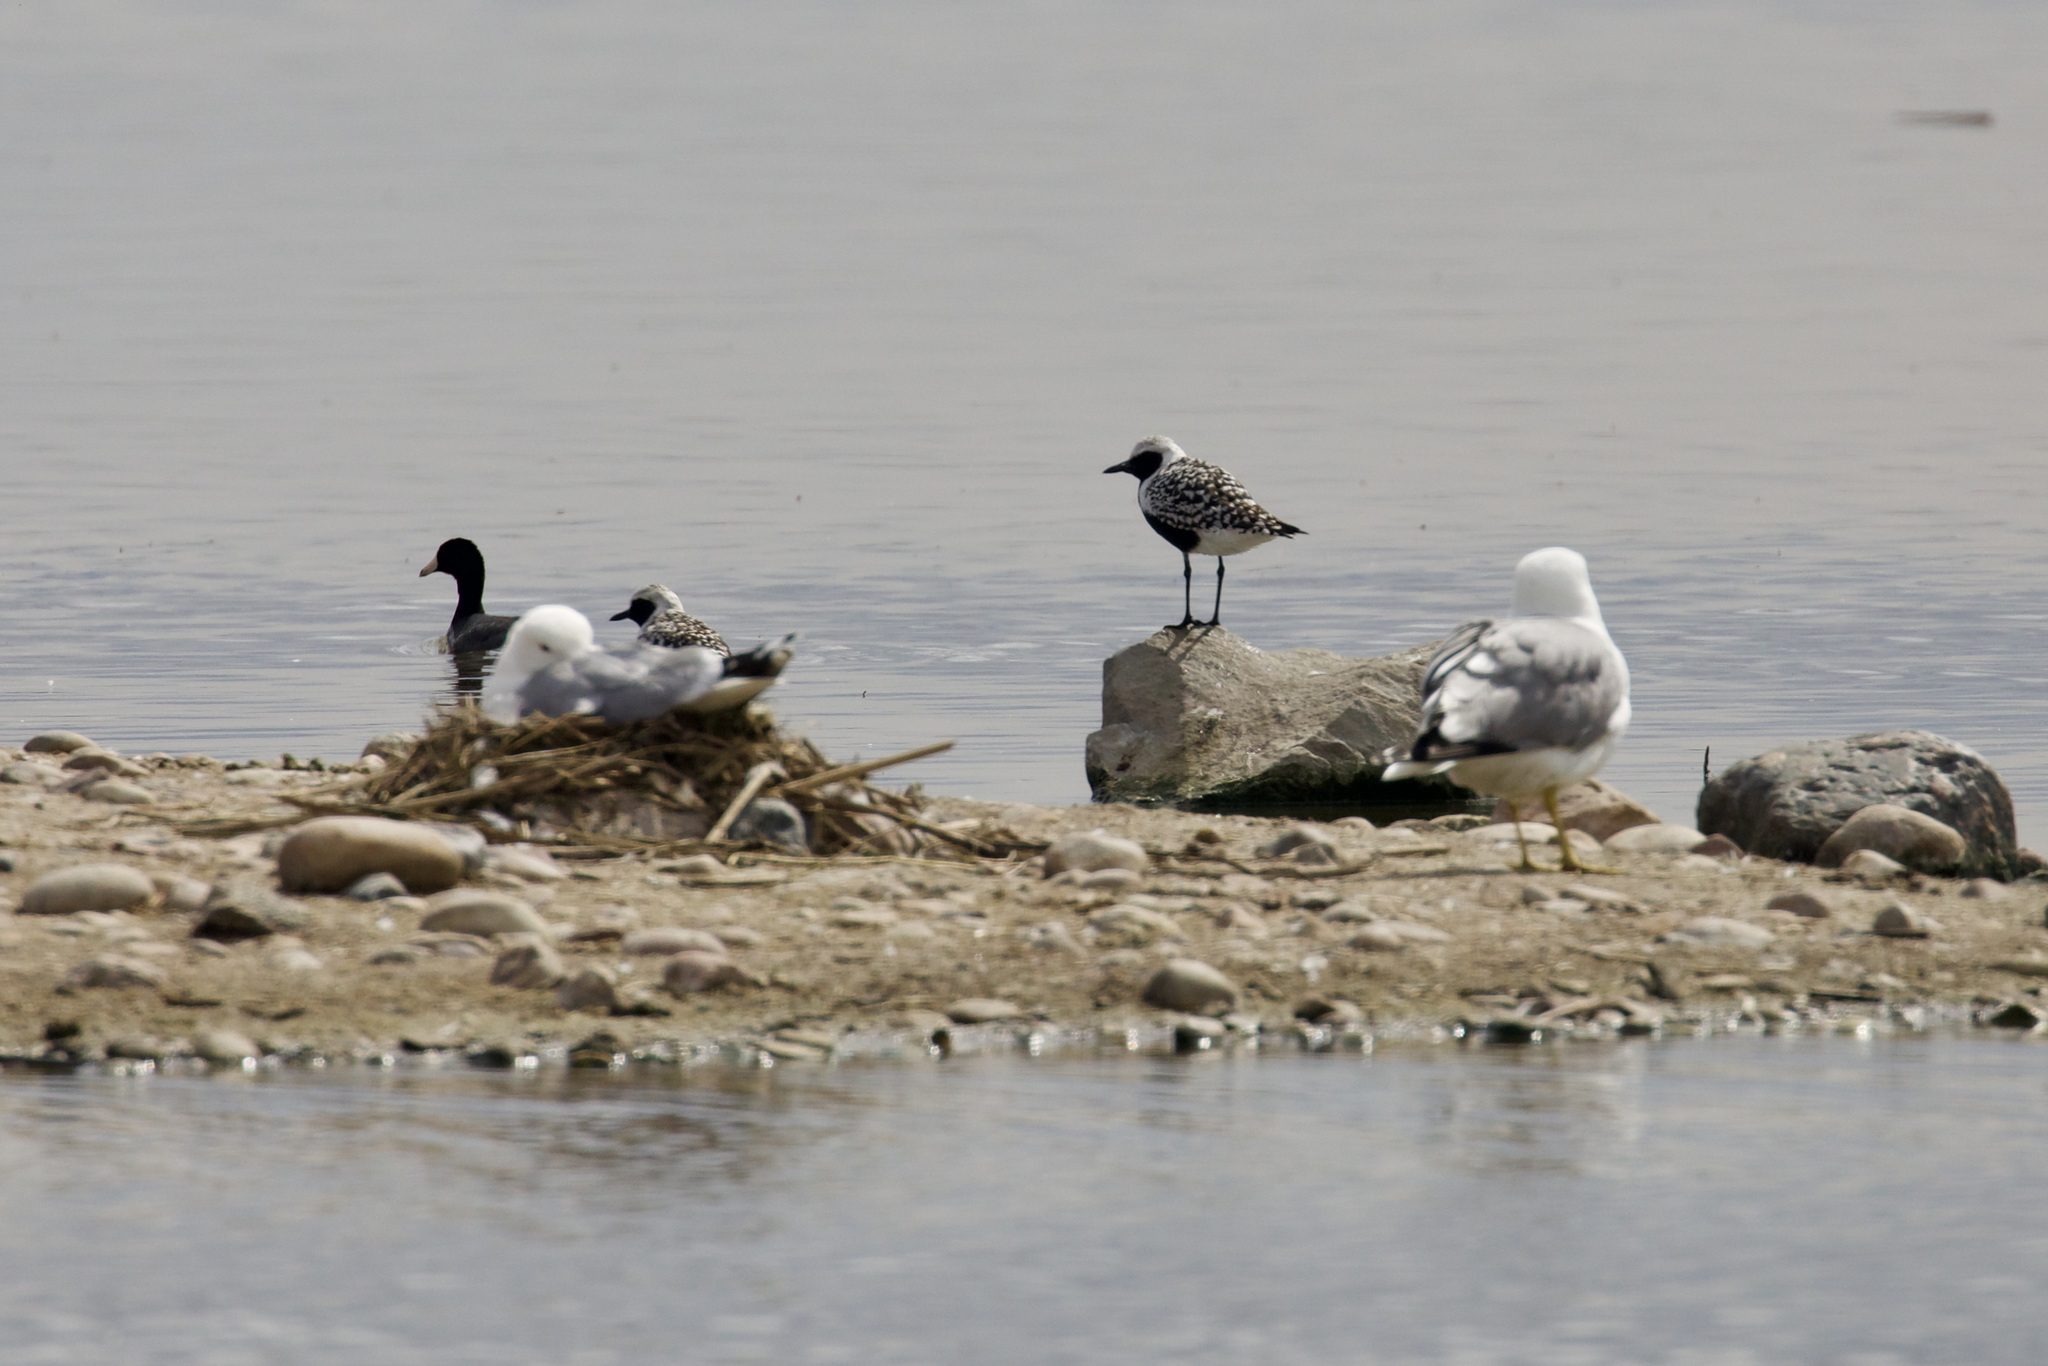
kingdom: Animalia
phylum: Chordata
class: Aves
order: Charadriiformes
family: Charadriidae
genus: Pluvialis
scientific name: Pluvialis squatarola
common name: Grey plover
